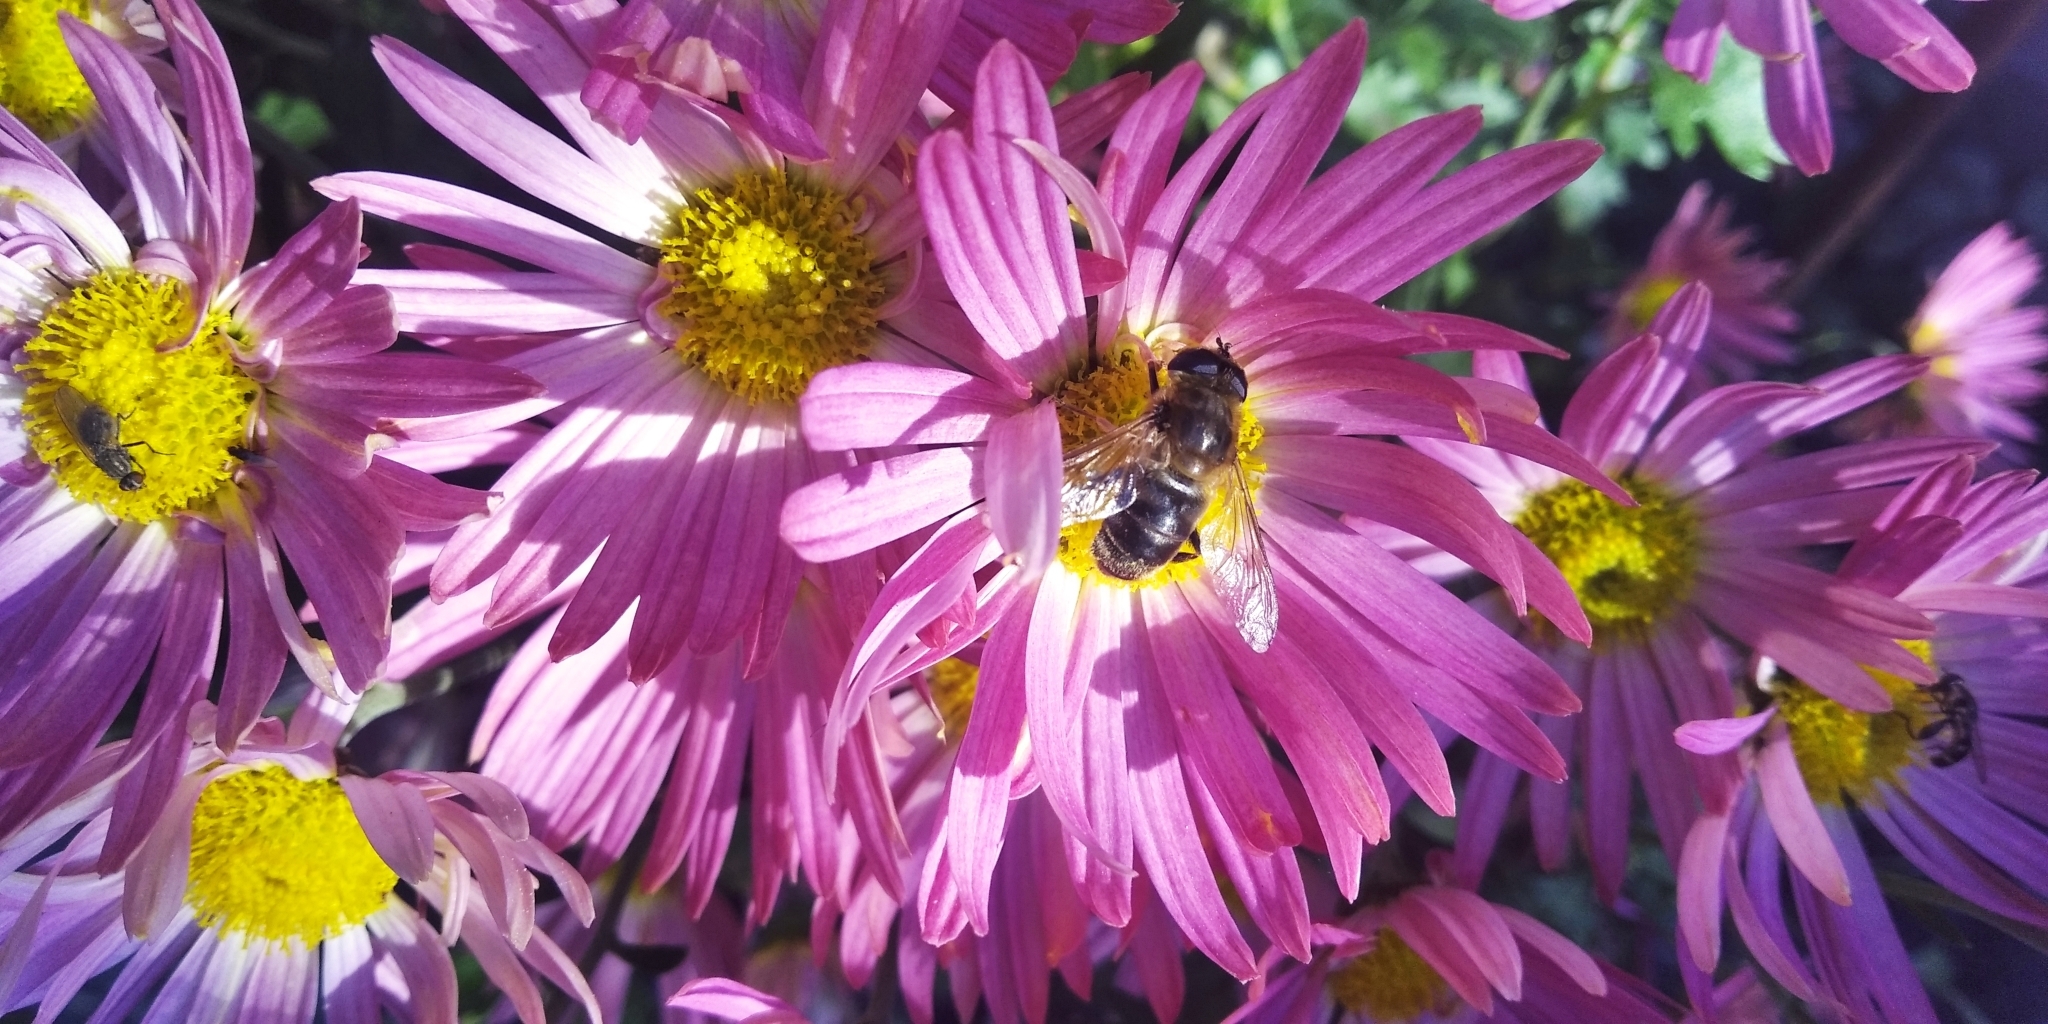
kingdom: Animalia
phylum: Arthropoda
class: Insecta
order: Diptera
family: Syrphidae
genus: Eristalis
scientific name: Eristalis tenax
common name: Drone fly
